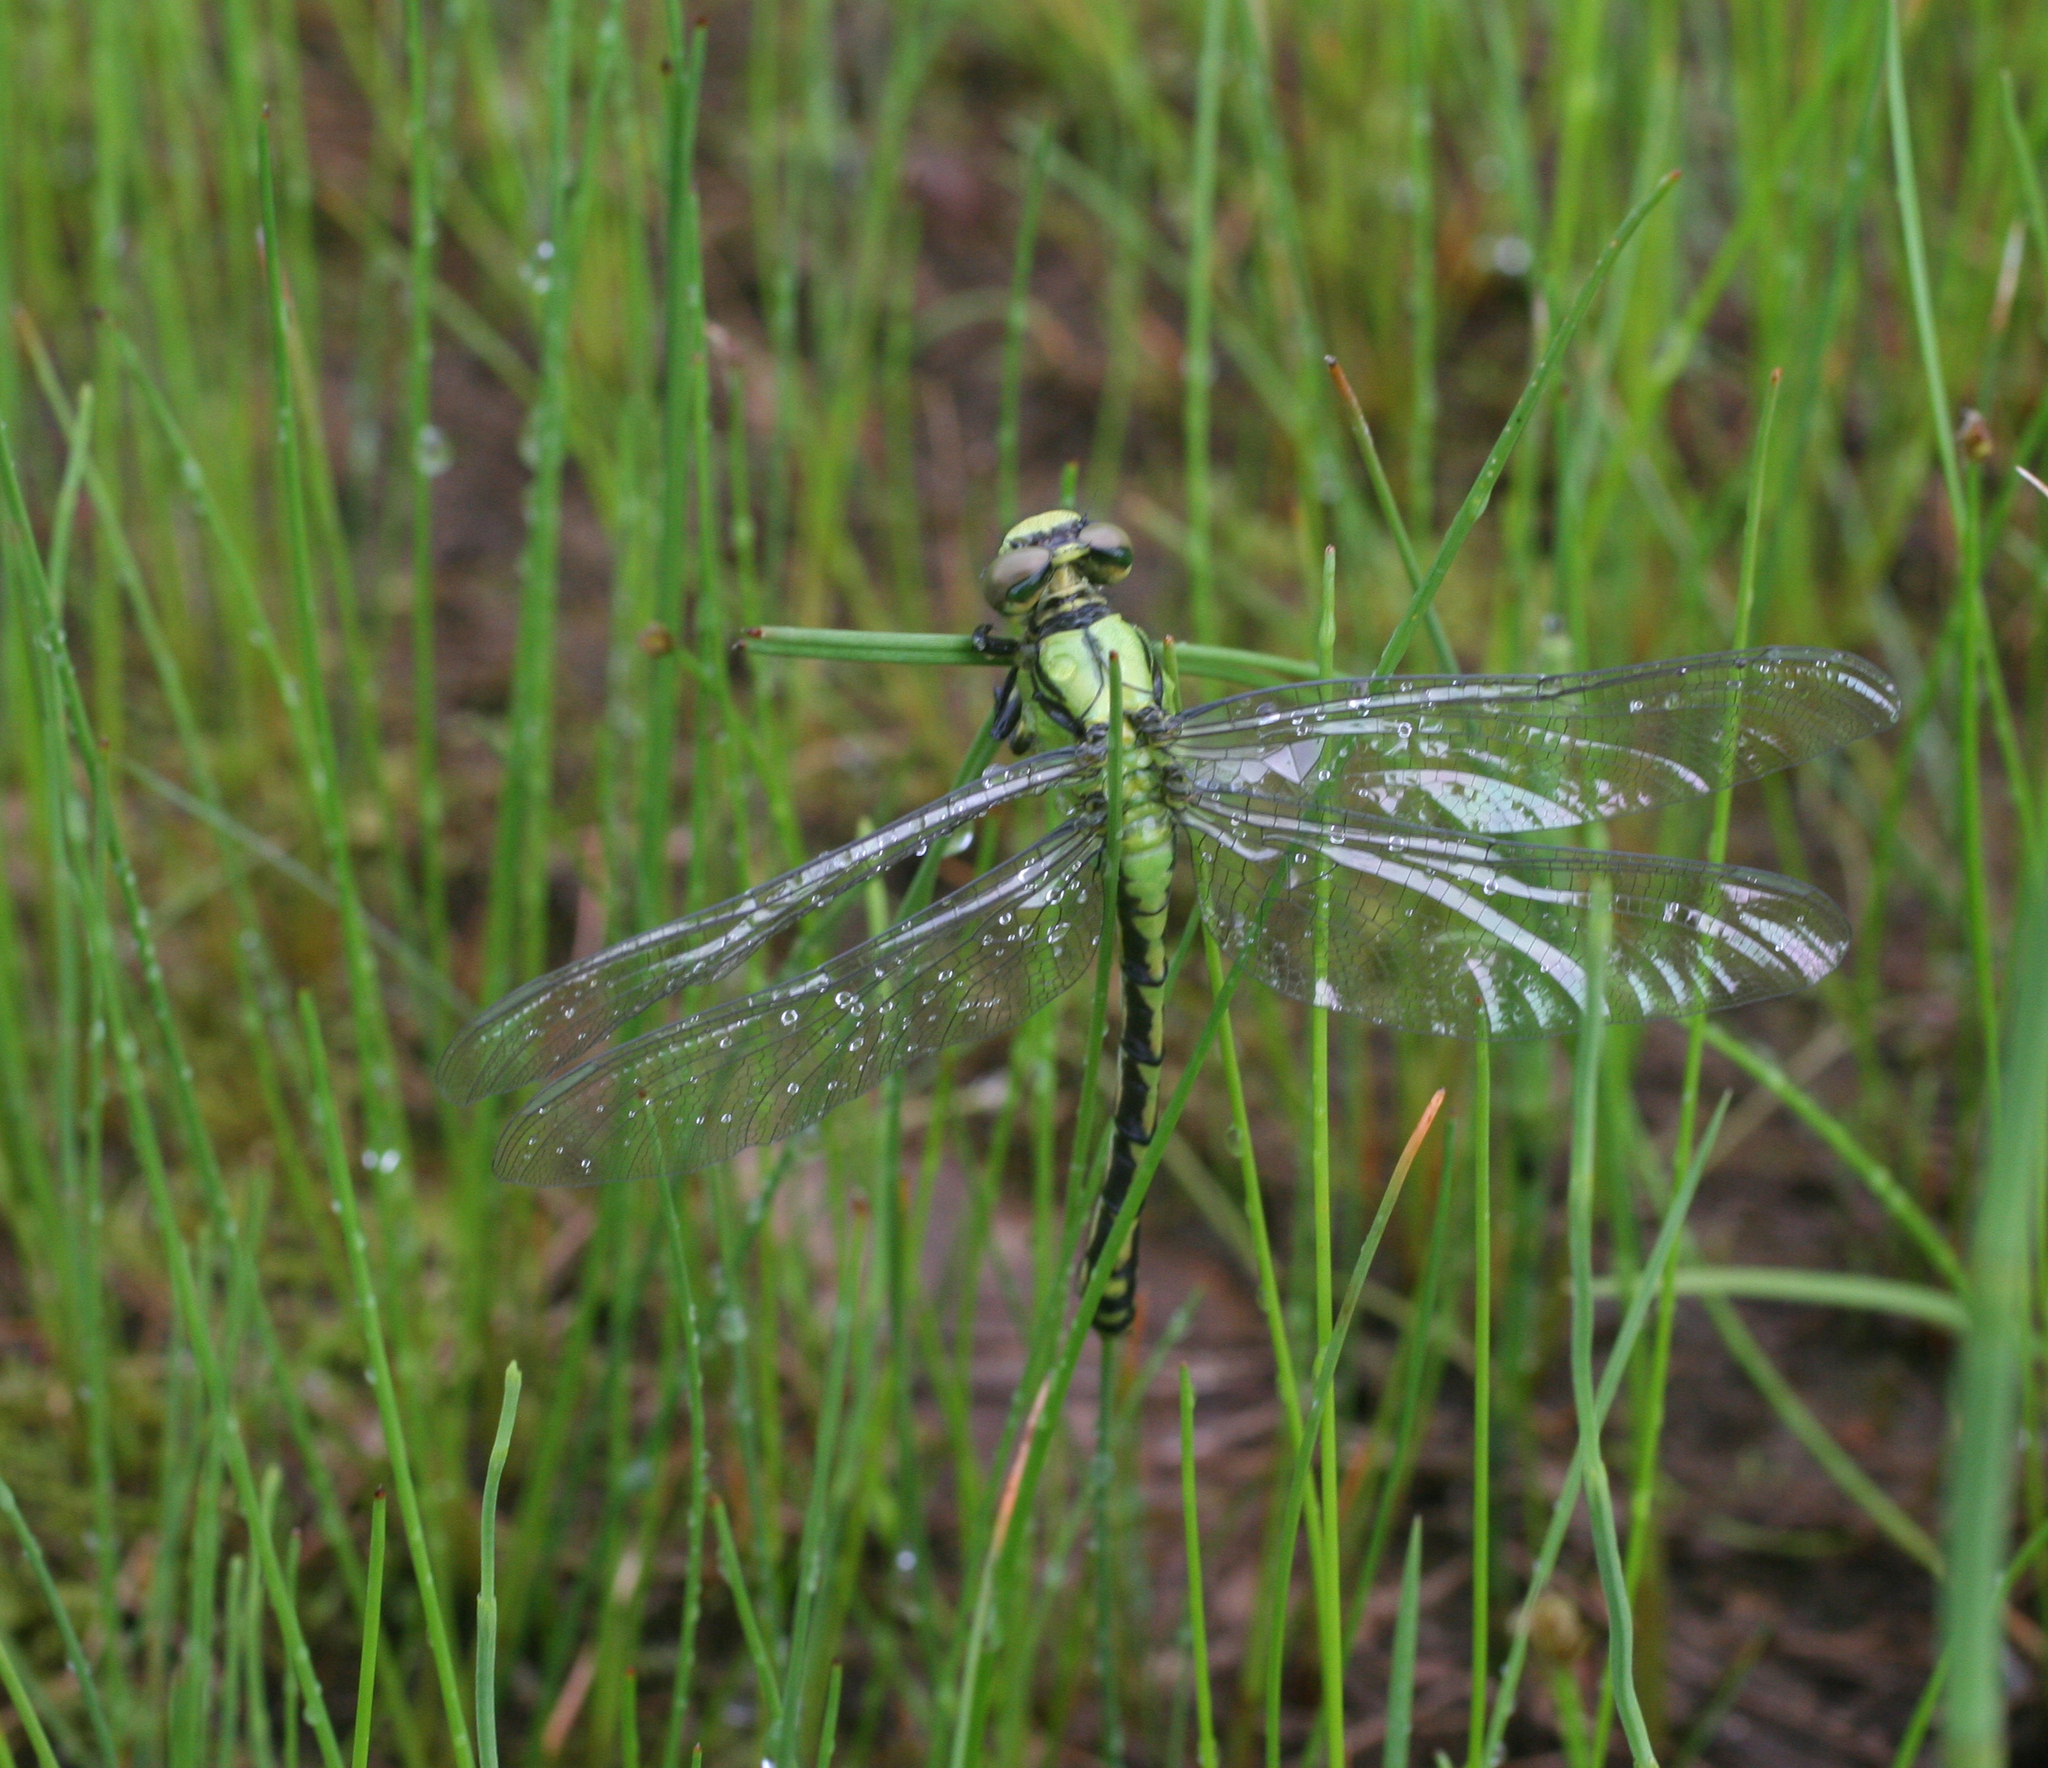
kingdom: Animalia
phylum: Arthropoda
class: Insecta
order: Odonata
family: Gomphidae
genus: Ophiogomphus
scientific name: Ophiogomphus obscurus
